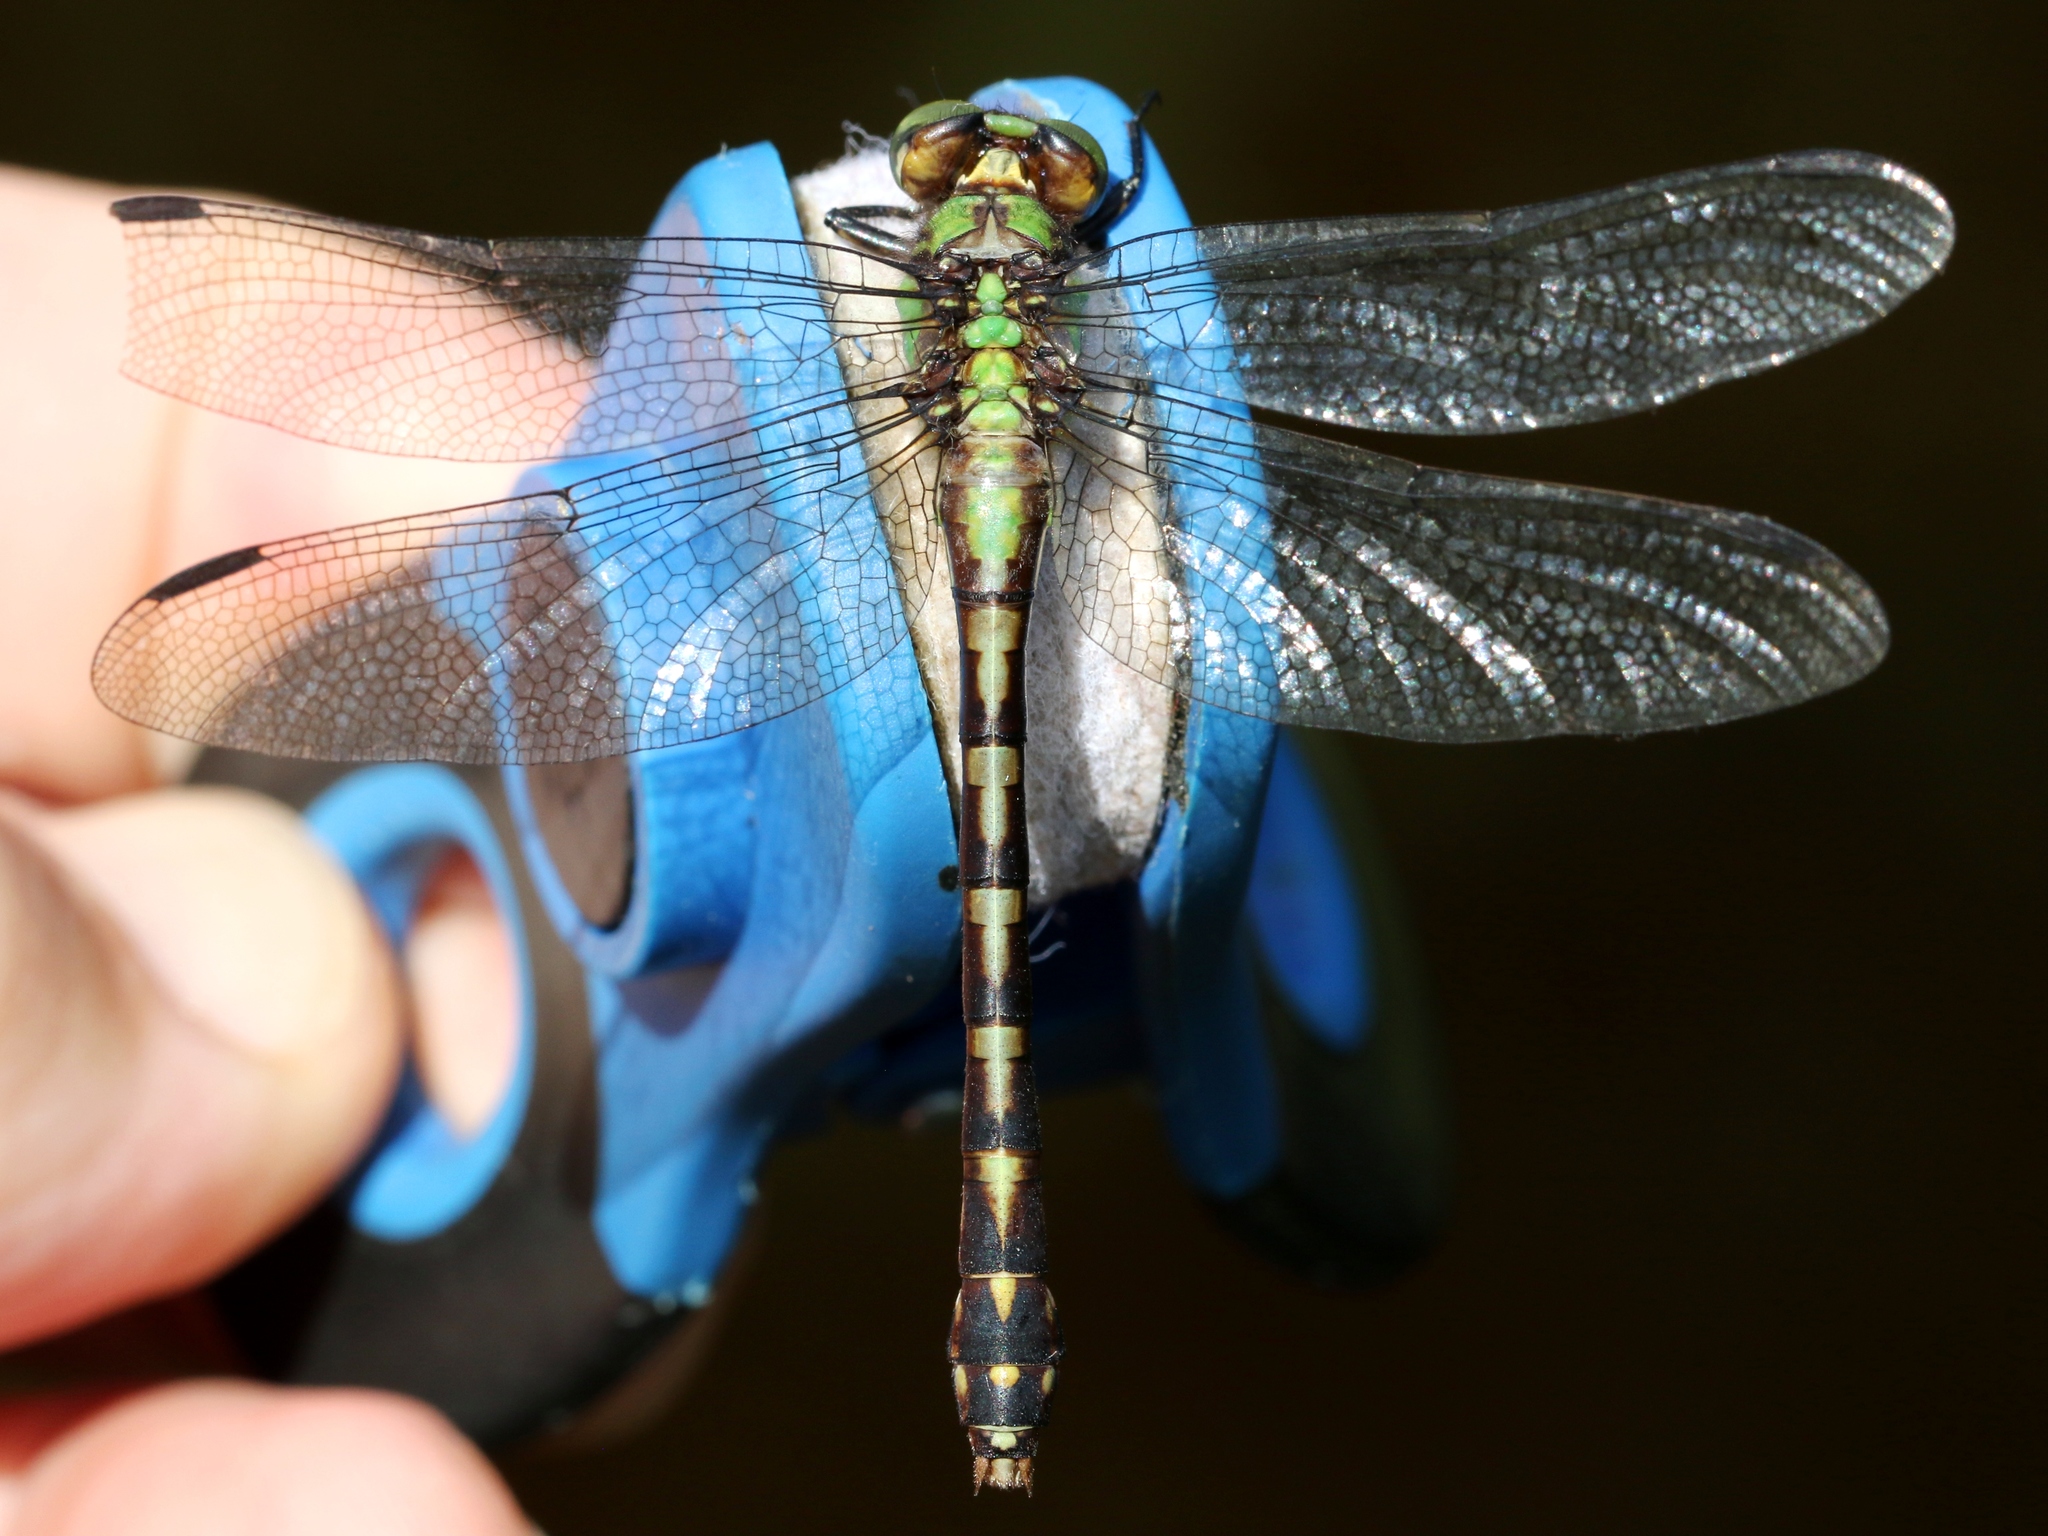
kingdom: Animalia
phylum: Arthropoda
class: Insecta
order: Odonata
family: Gomphidae
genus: Ophiogomphus
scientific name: Ophiogomphus aspersus
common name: Brook snaketail
